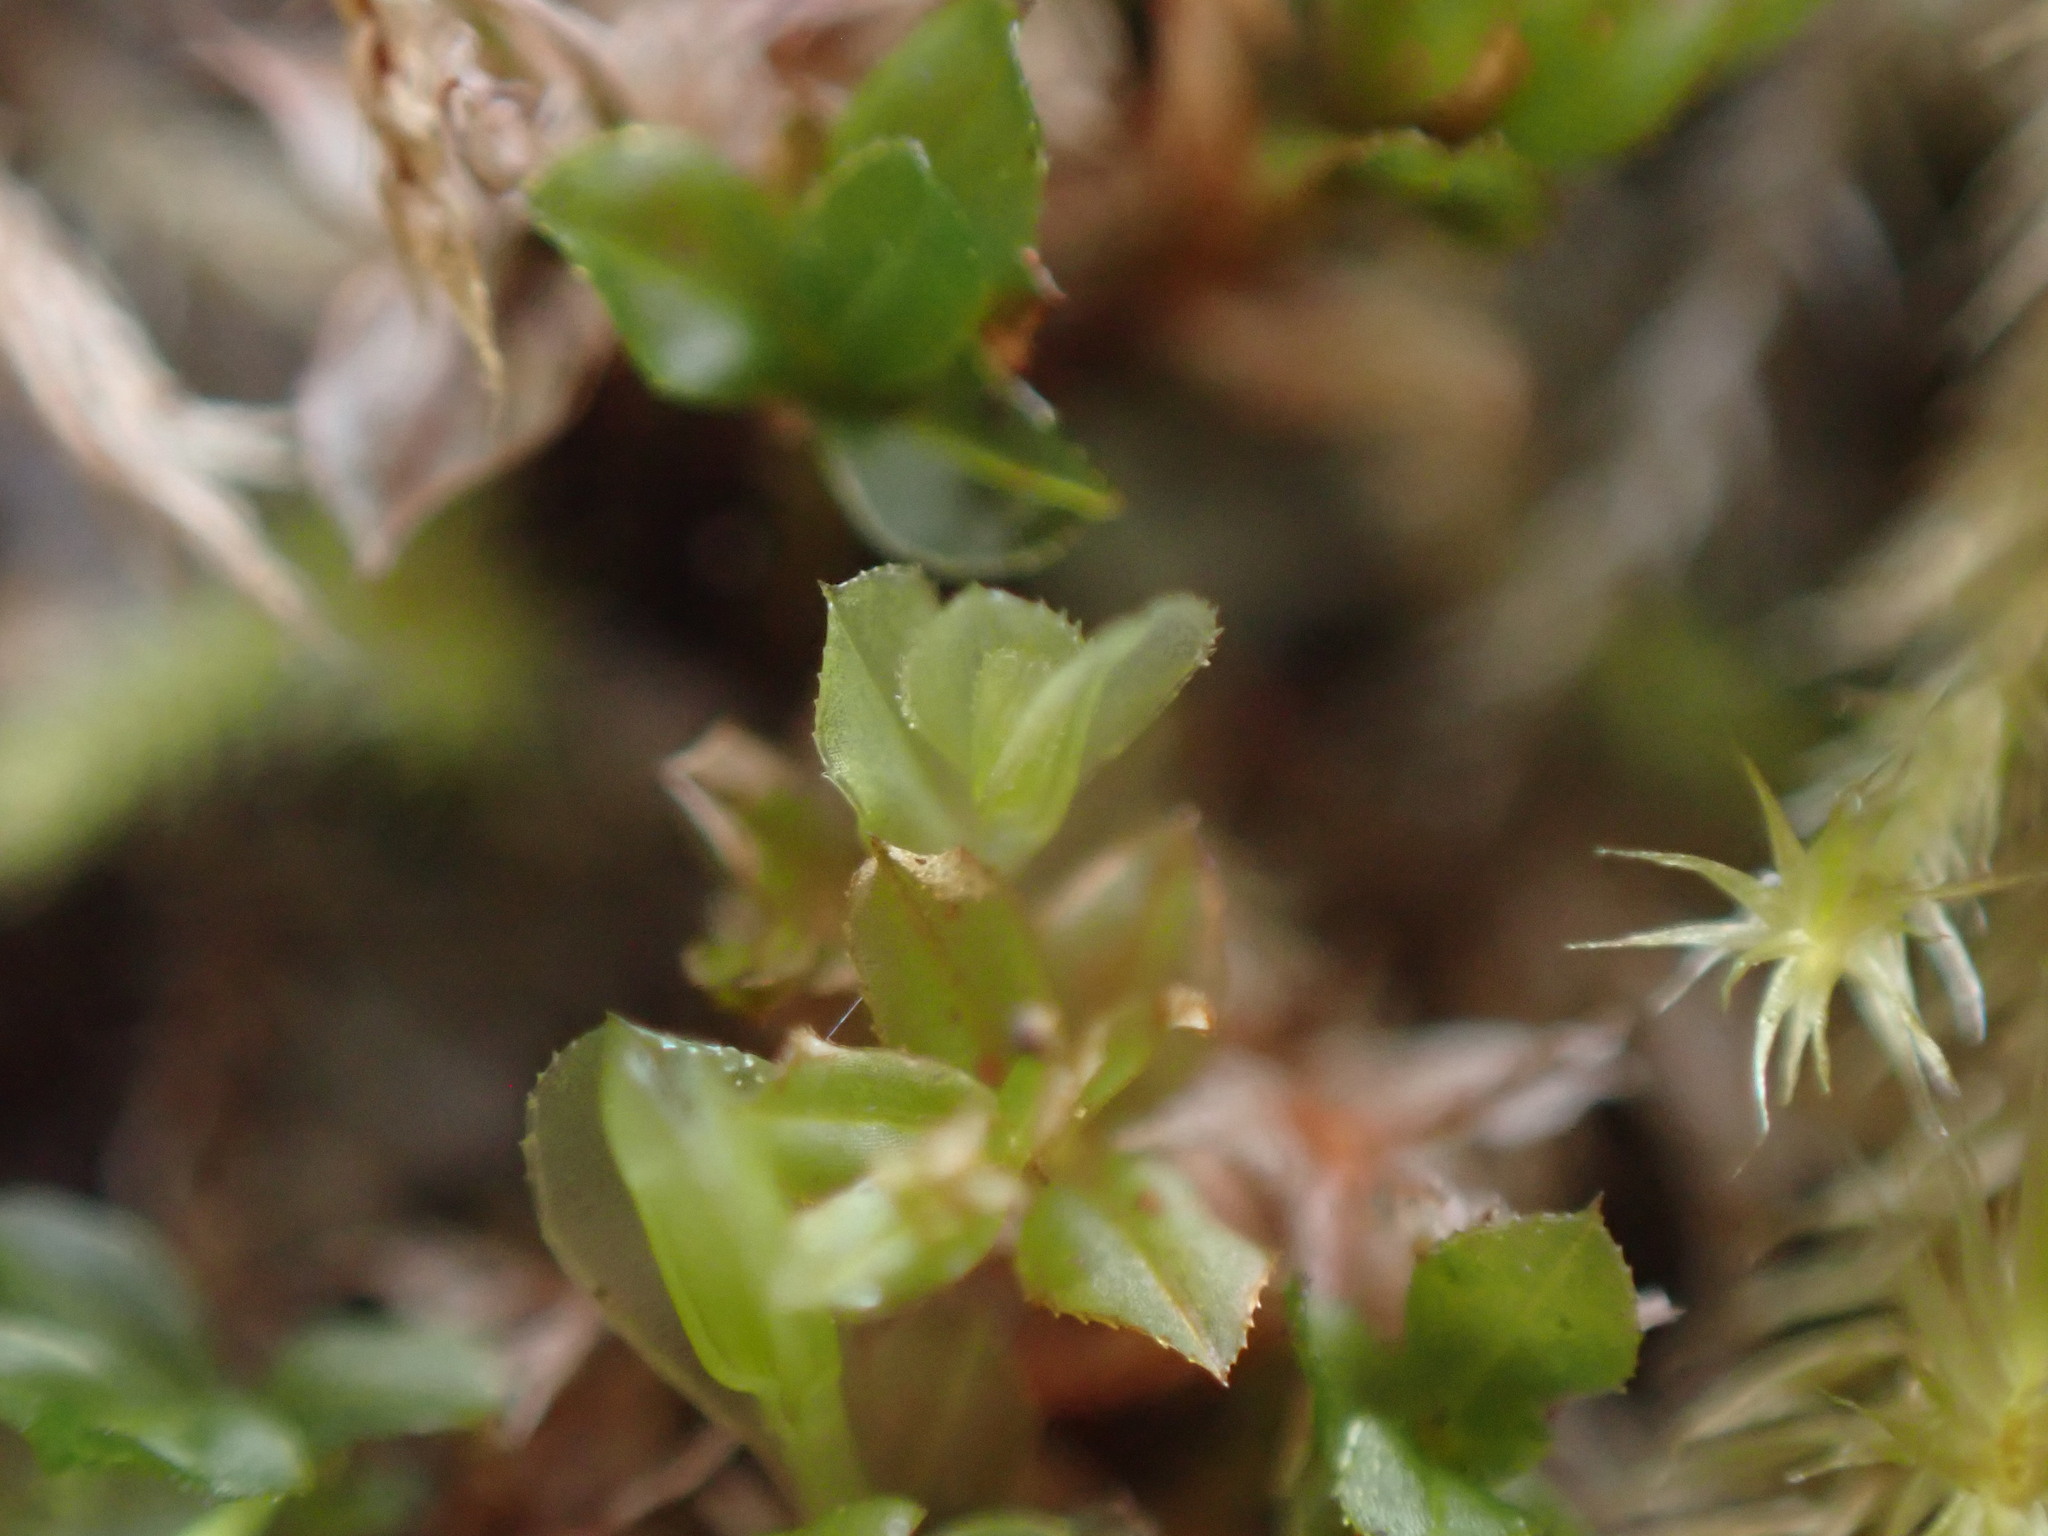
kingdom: Plantae
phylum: Bryophyta
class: Bryopsida
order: Bryales
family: Mniaceae
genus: Mnium
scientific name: Mnium spinulosum
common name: Red-mouthed leafy moss
